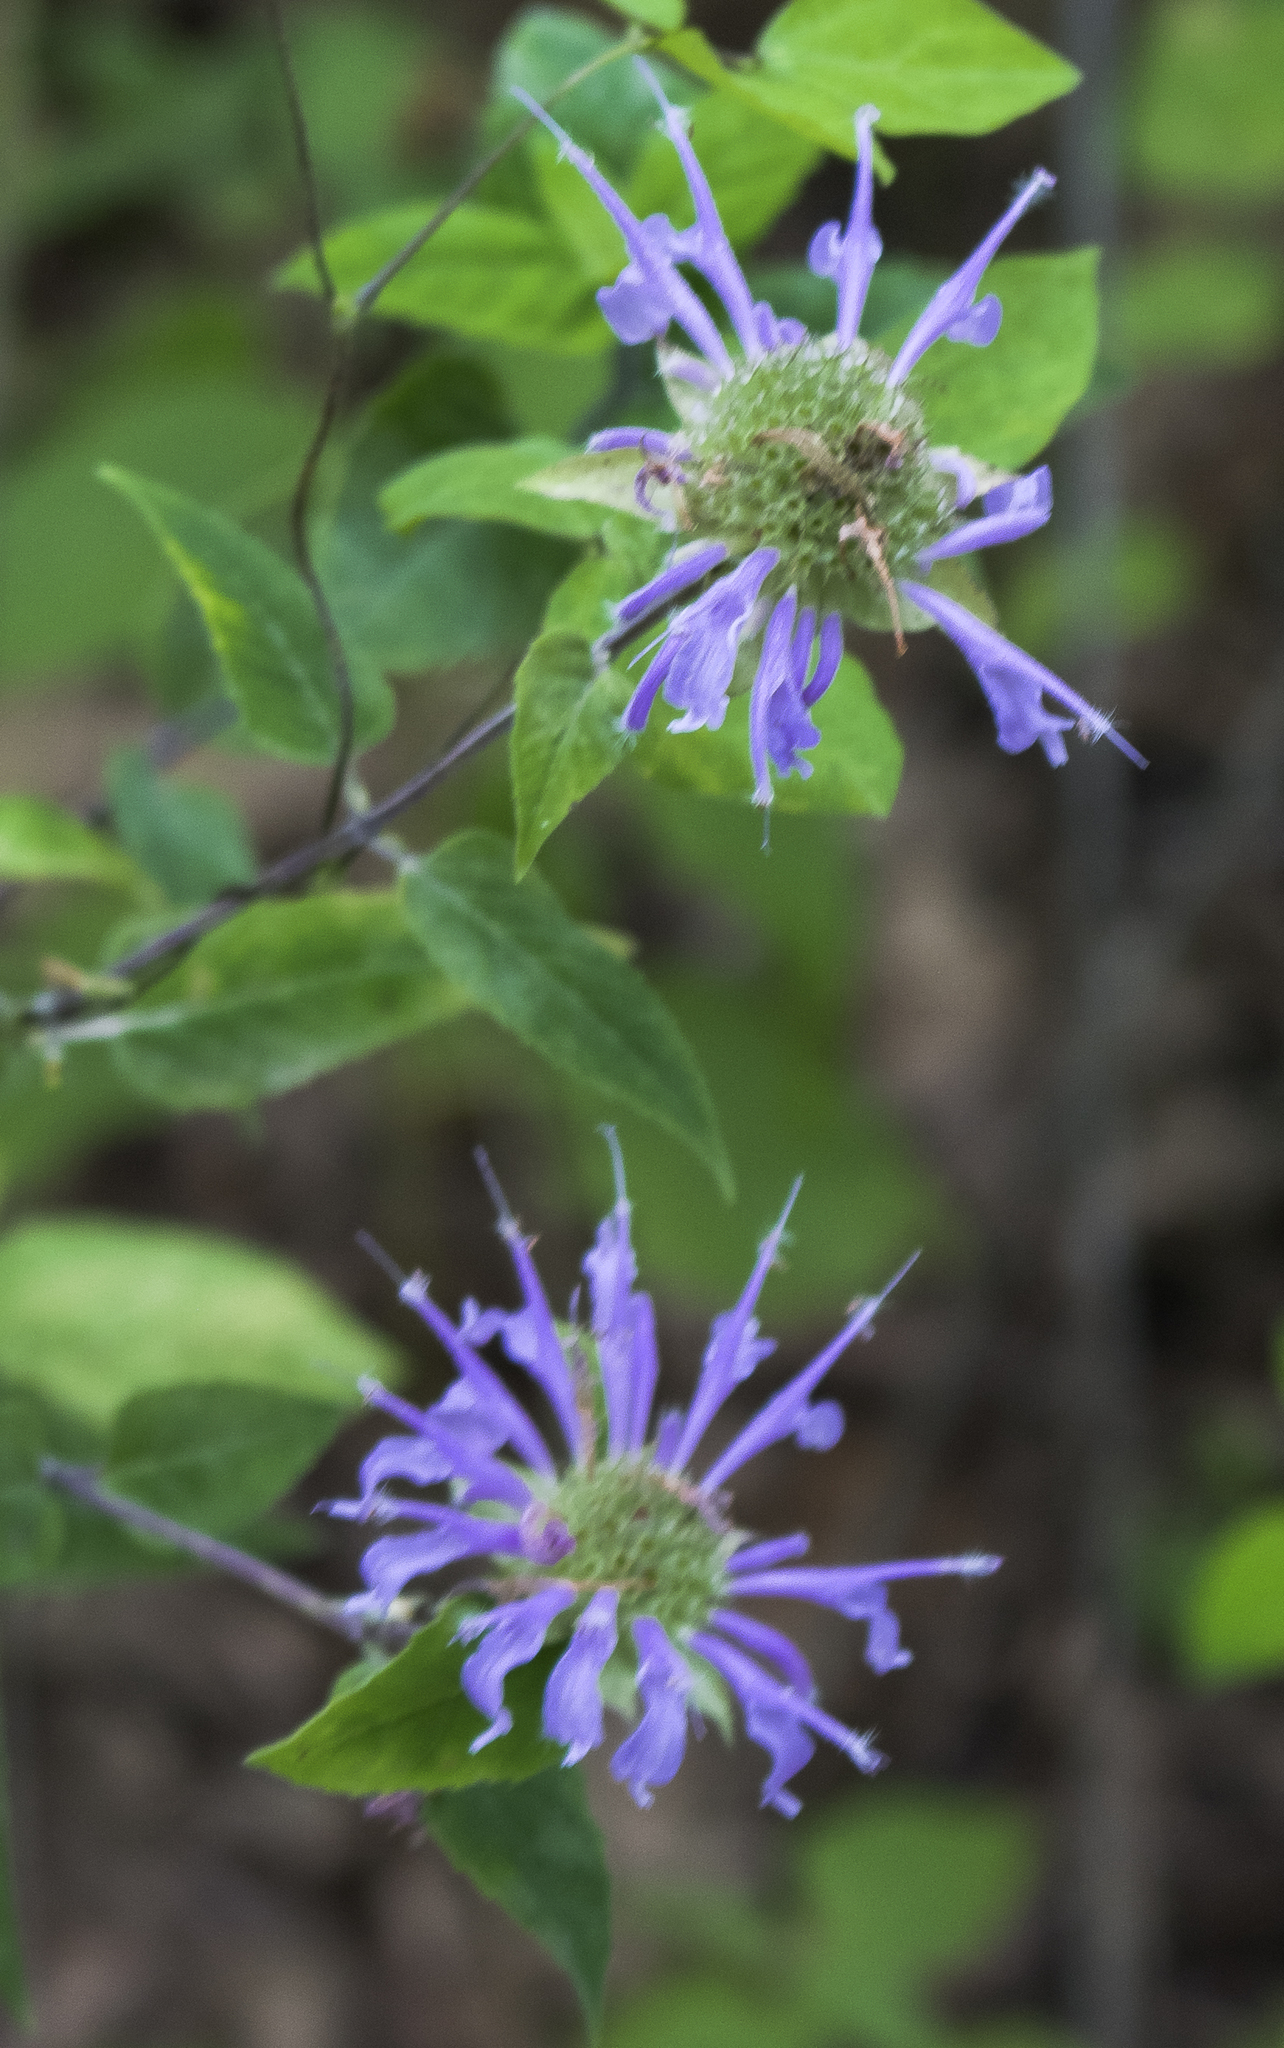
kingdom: Plantae
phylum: Tracheophyta
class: Magnoliopsida
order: Lamiales
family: Lamiaceae
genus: Monarda
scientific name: Monarda fistulosa
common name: Purple beebalm
